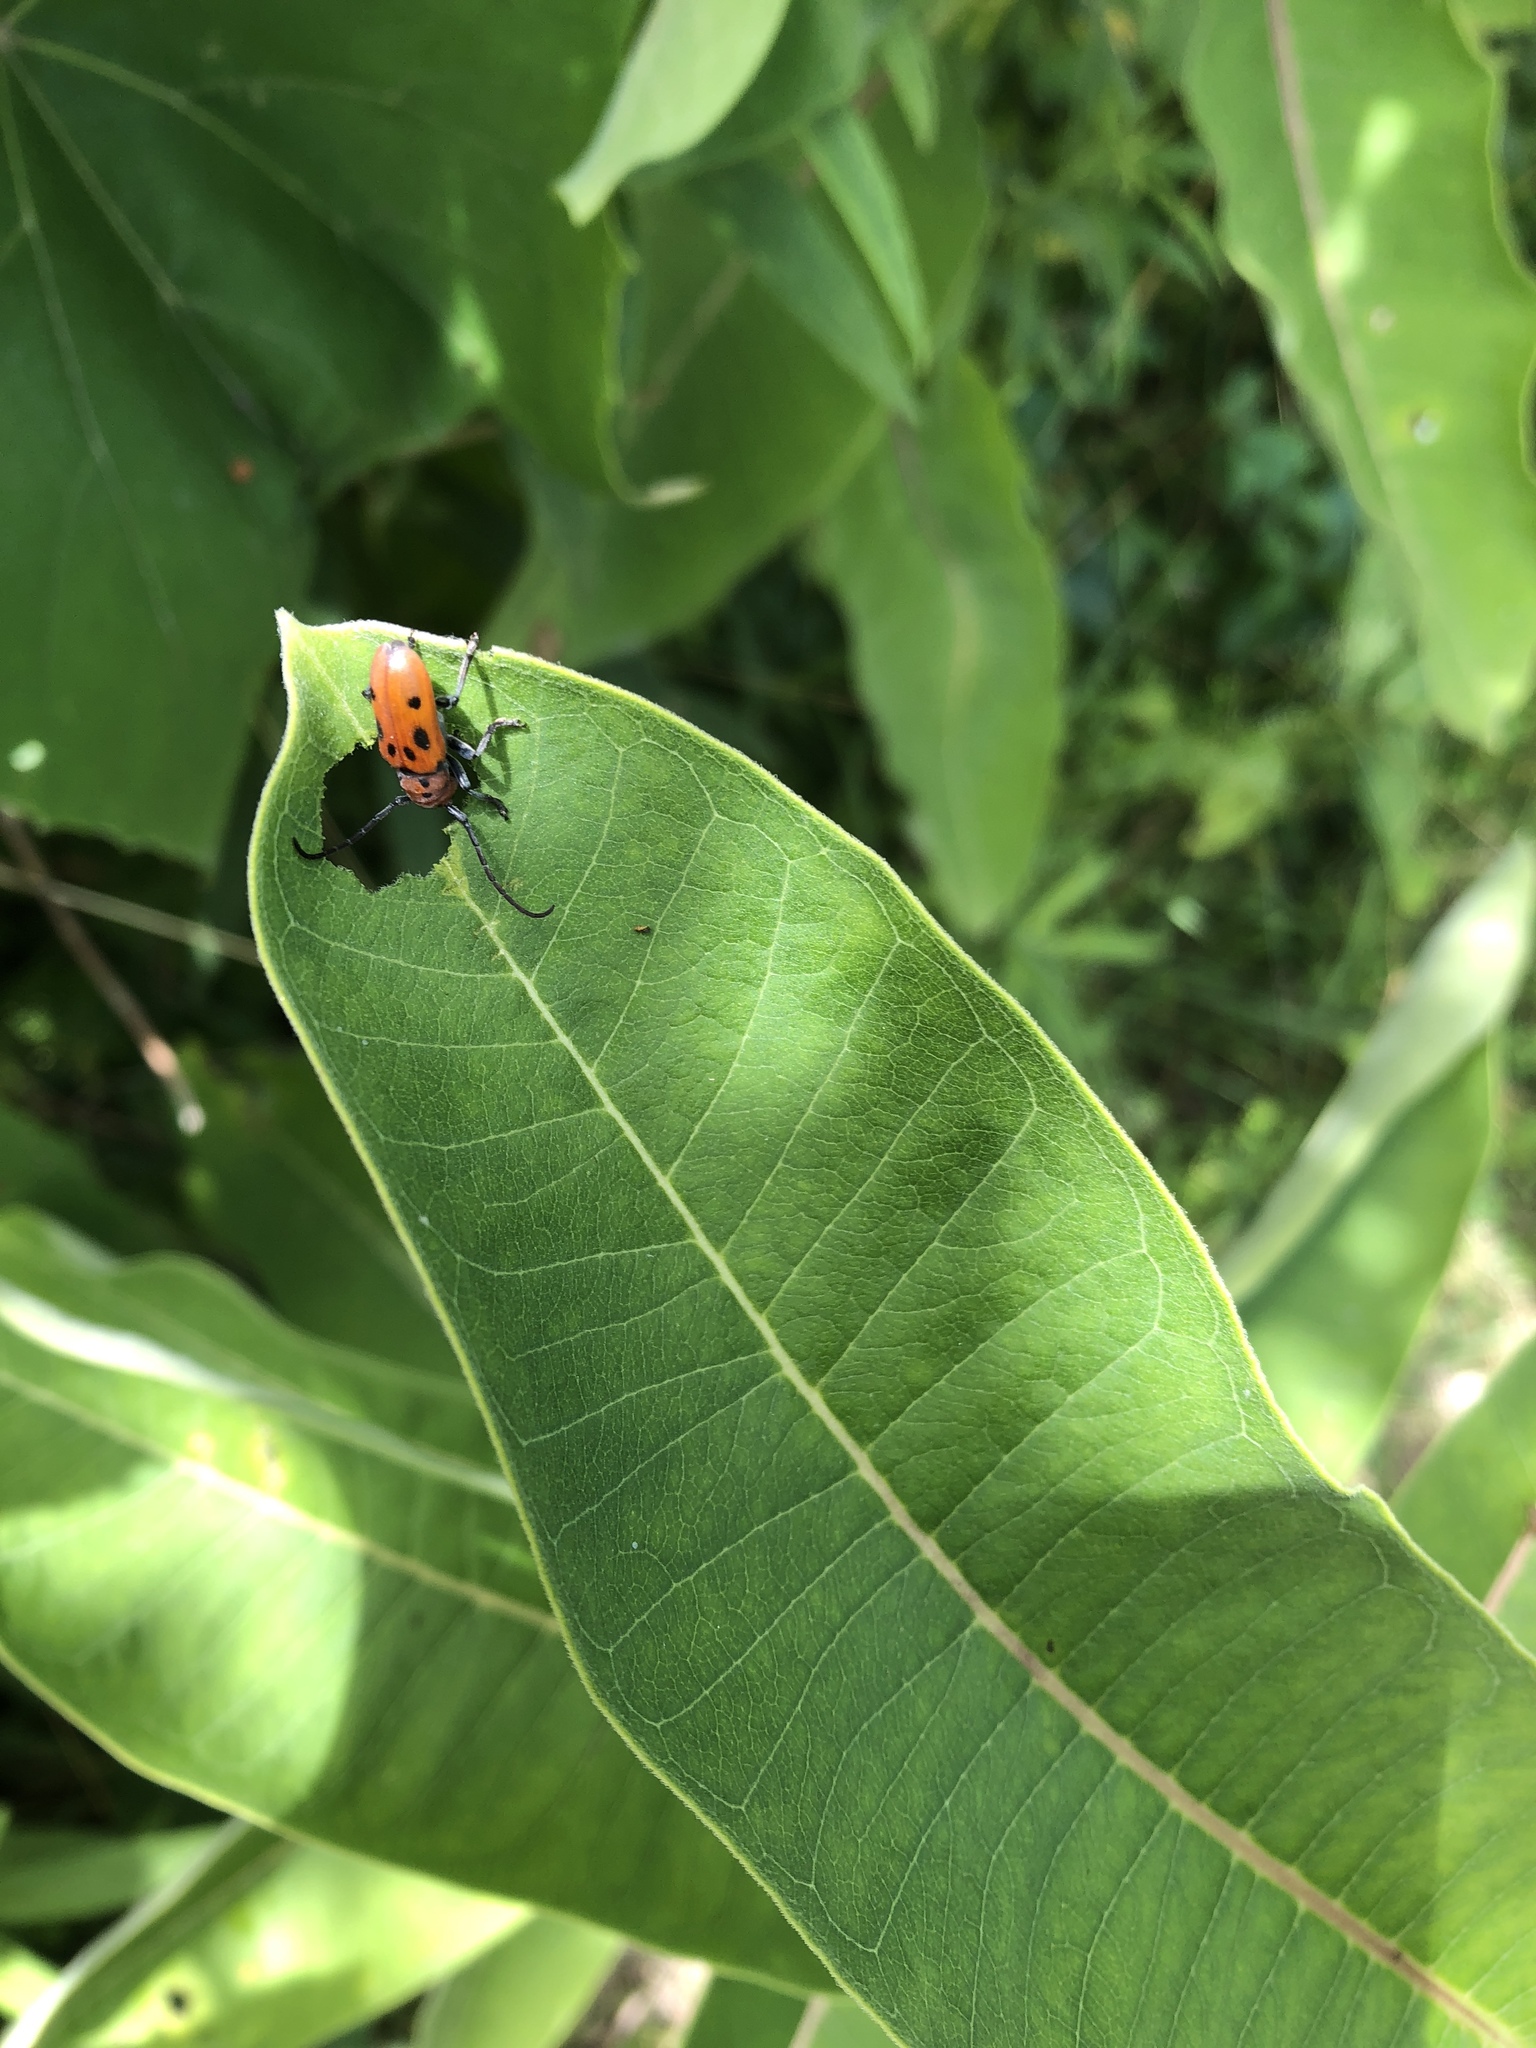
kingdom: Animalia
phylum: Arthropoda
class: Insecta
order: Coleoptera
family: Cerambycidae
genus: Tetraopes
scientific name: Tetraopes tetrophthalmus
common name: Red milkweed beetle
